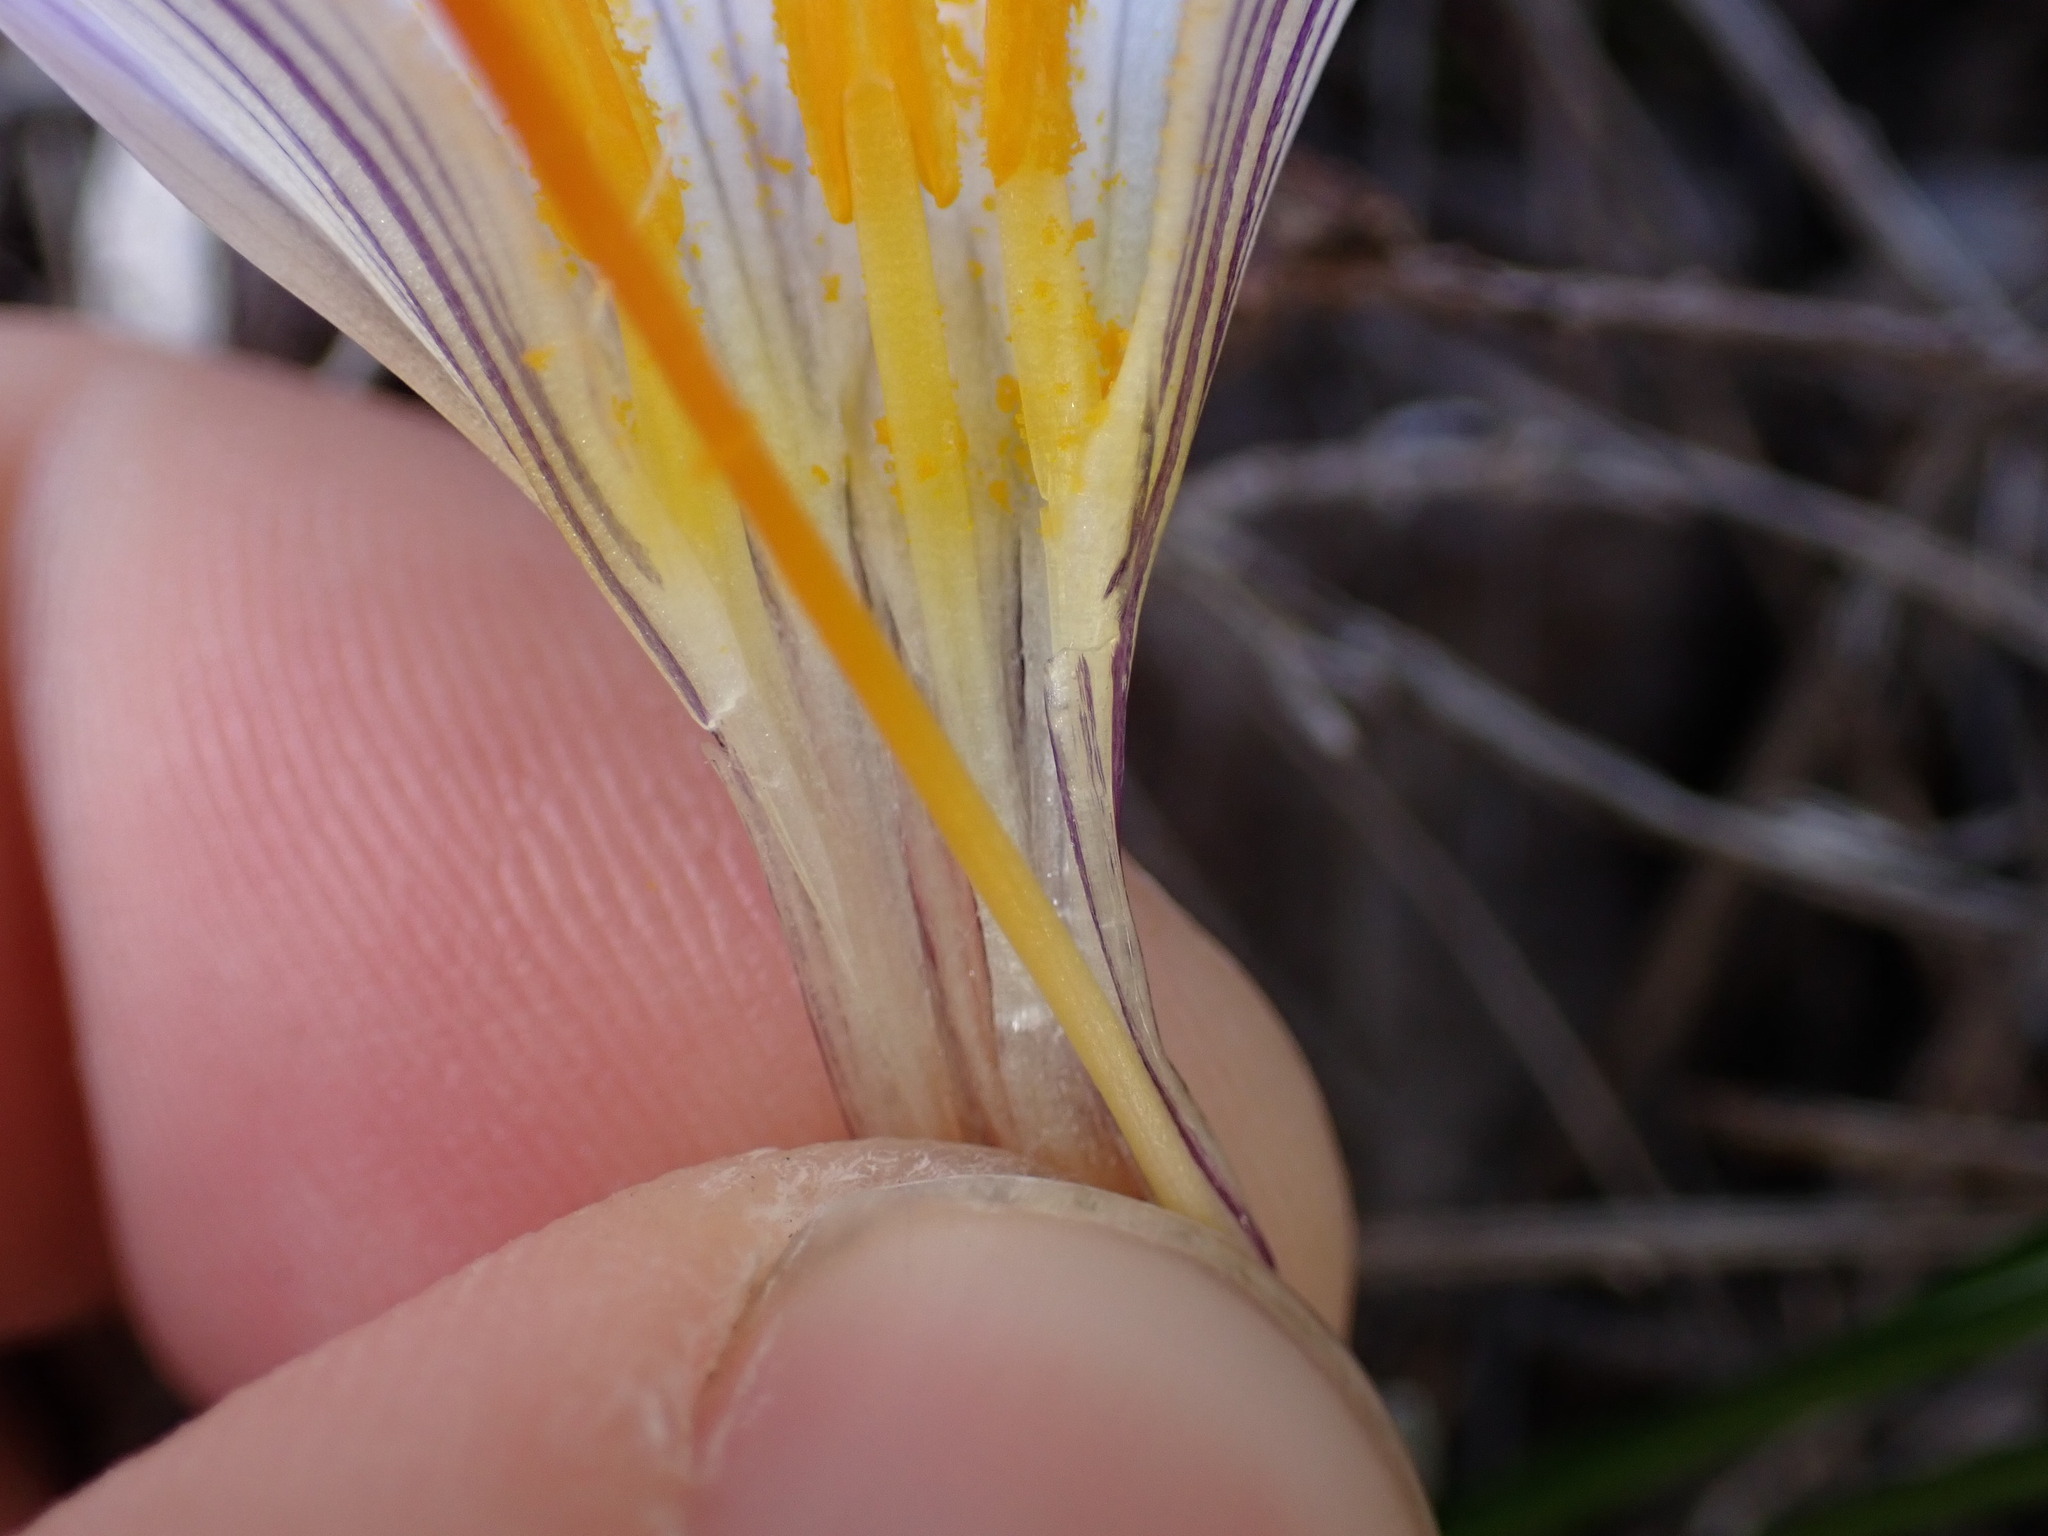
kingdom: Plantae
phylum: Tracheophyta
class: Liliopsida
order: Asparagales
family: Iridaceae
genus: Crocus
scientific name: Crocus versicolor
